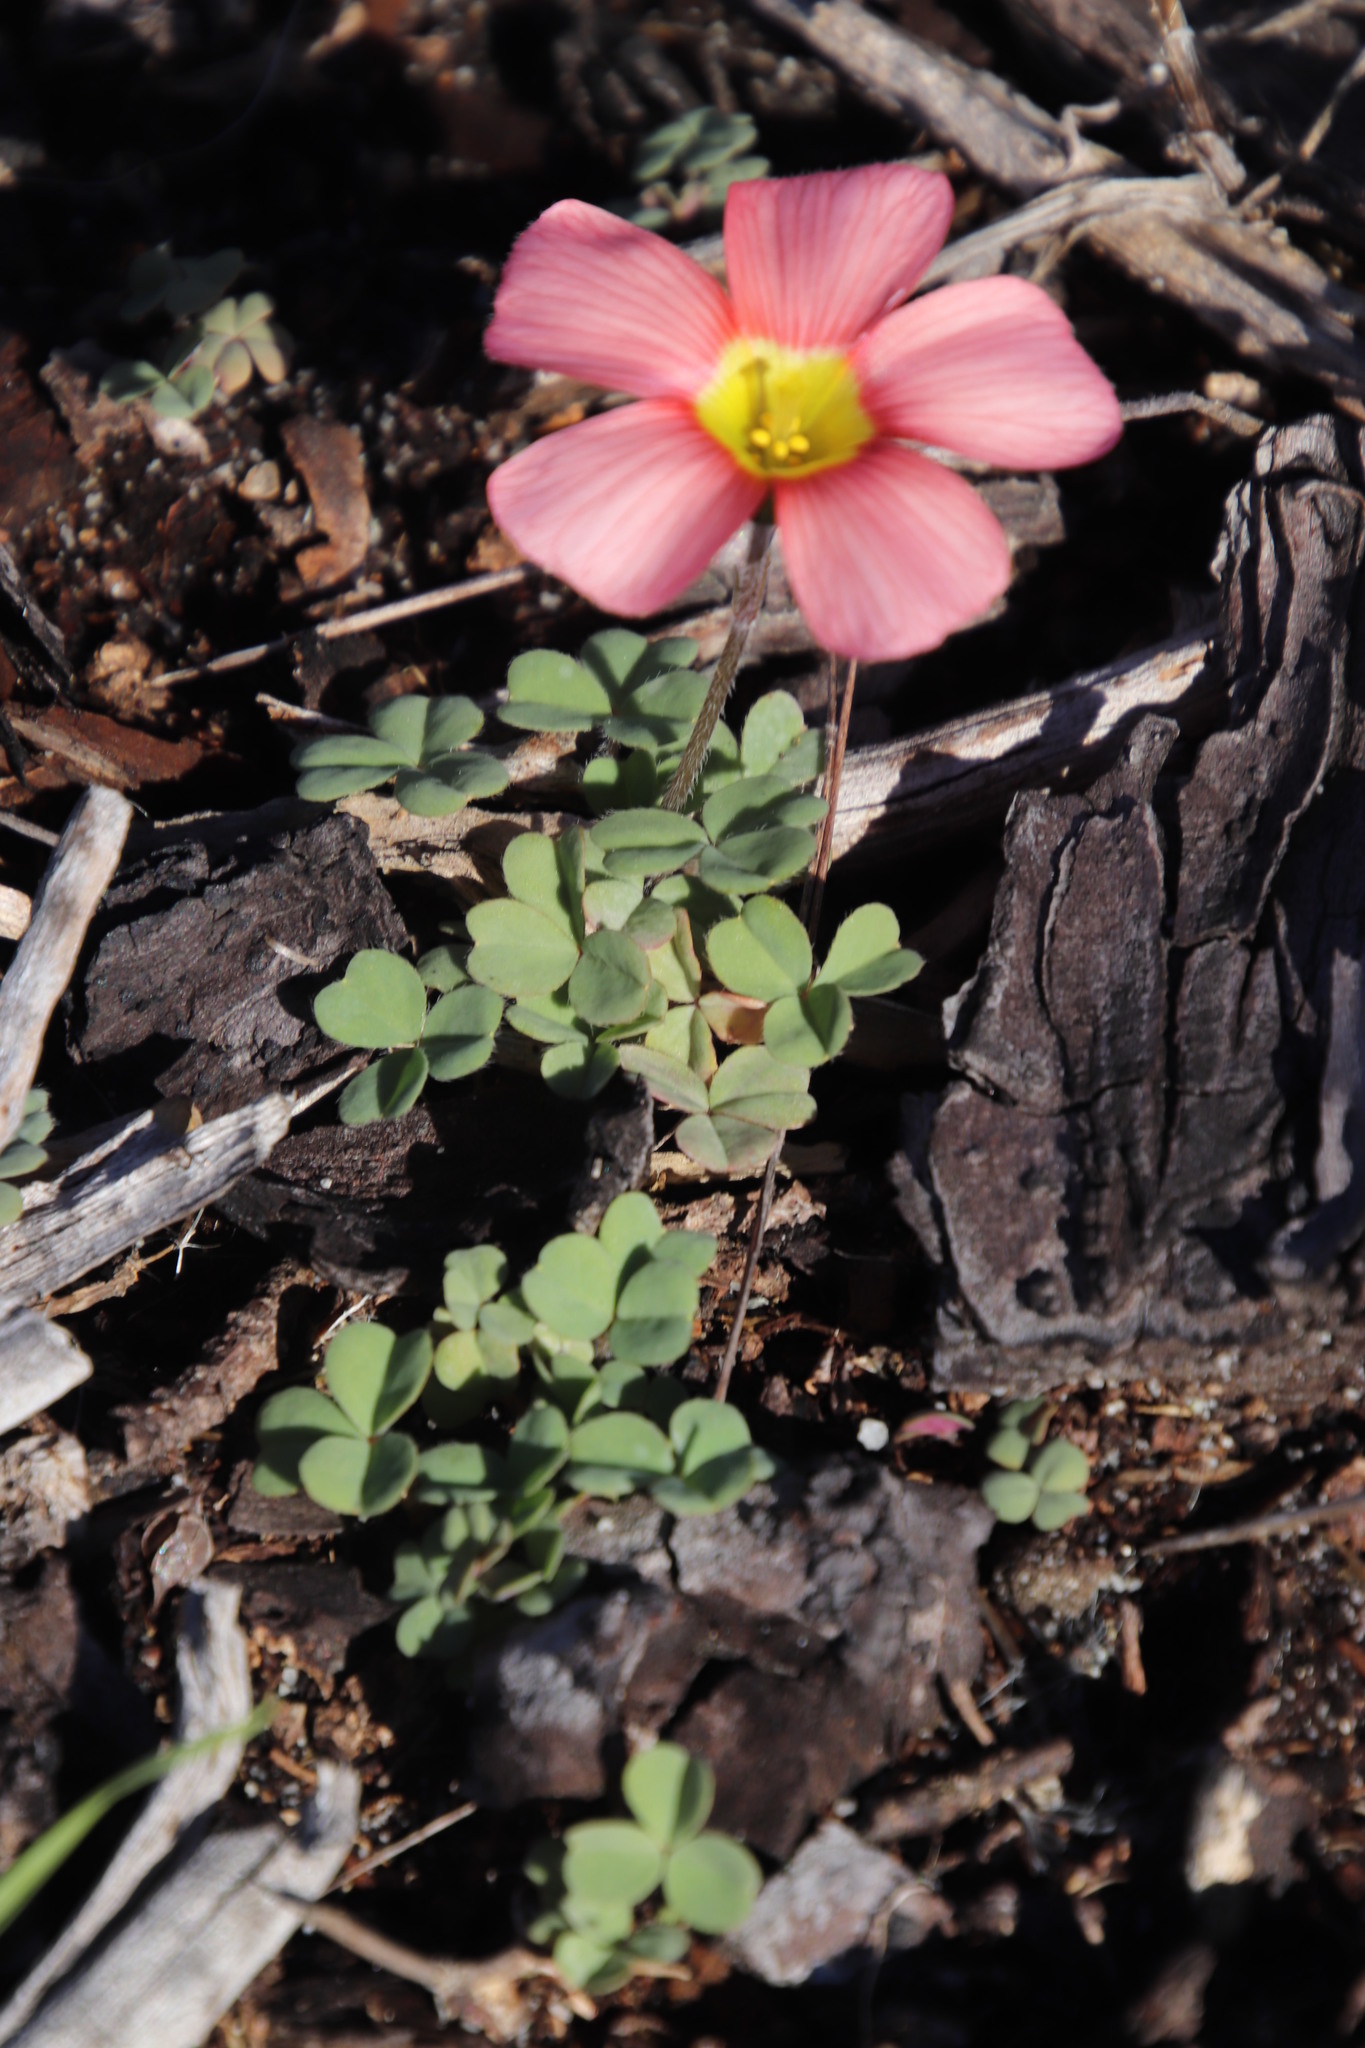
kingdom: Plantae
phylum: Tracheophyta
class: Magnoliopsida
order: Oxalidales
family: Oxalidaceae
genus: Oxalis
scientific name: Oxalis obtusa
